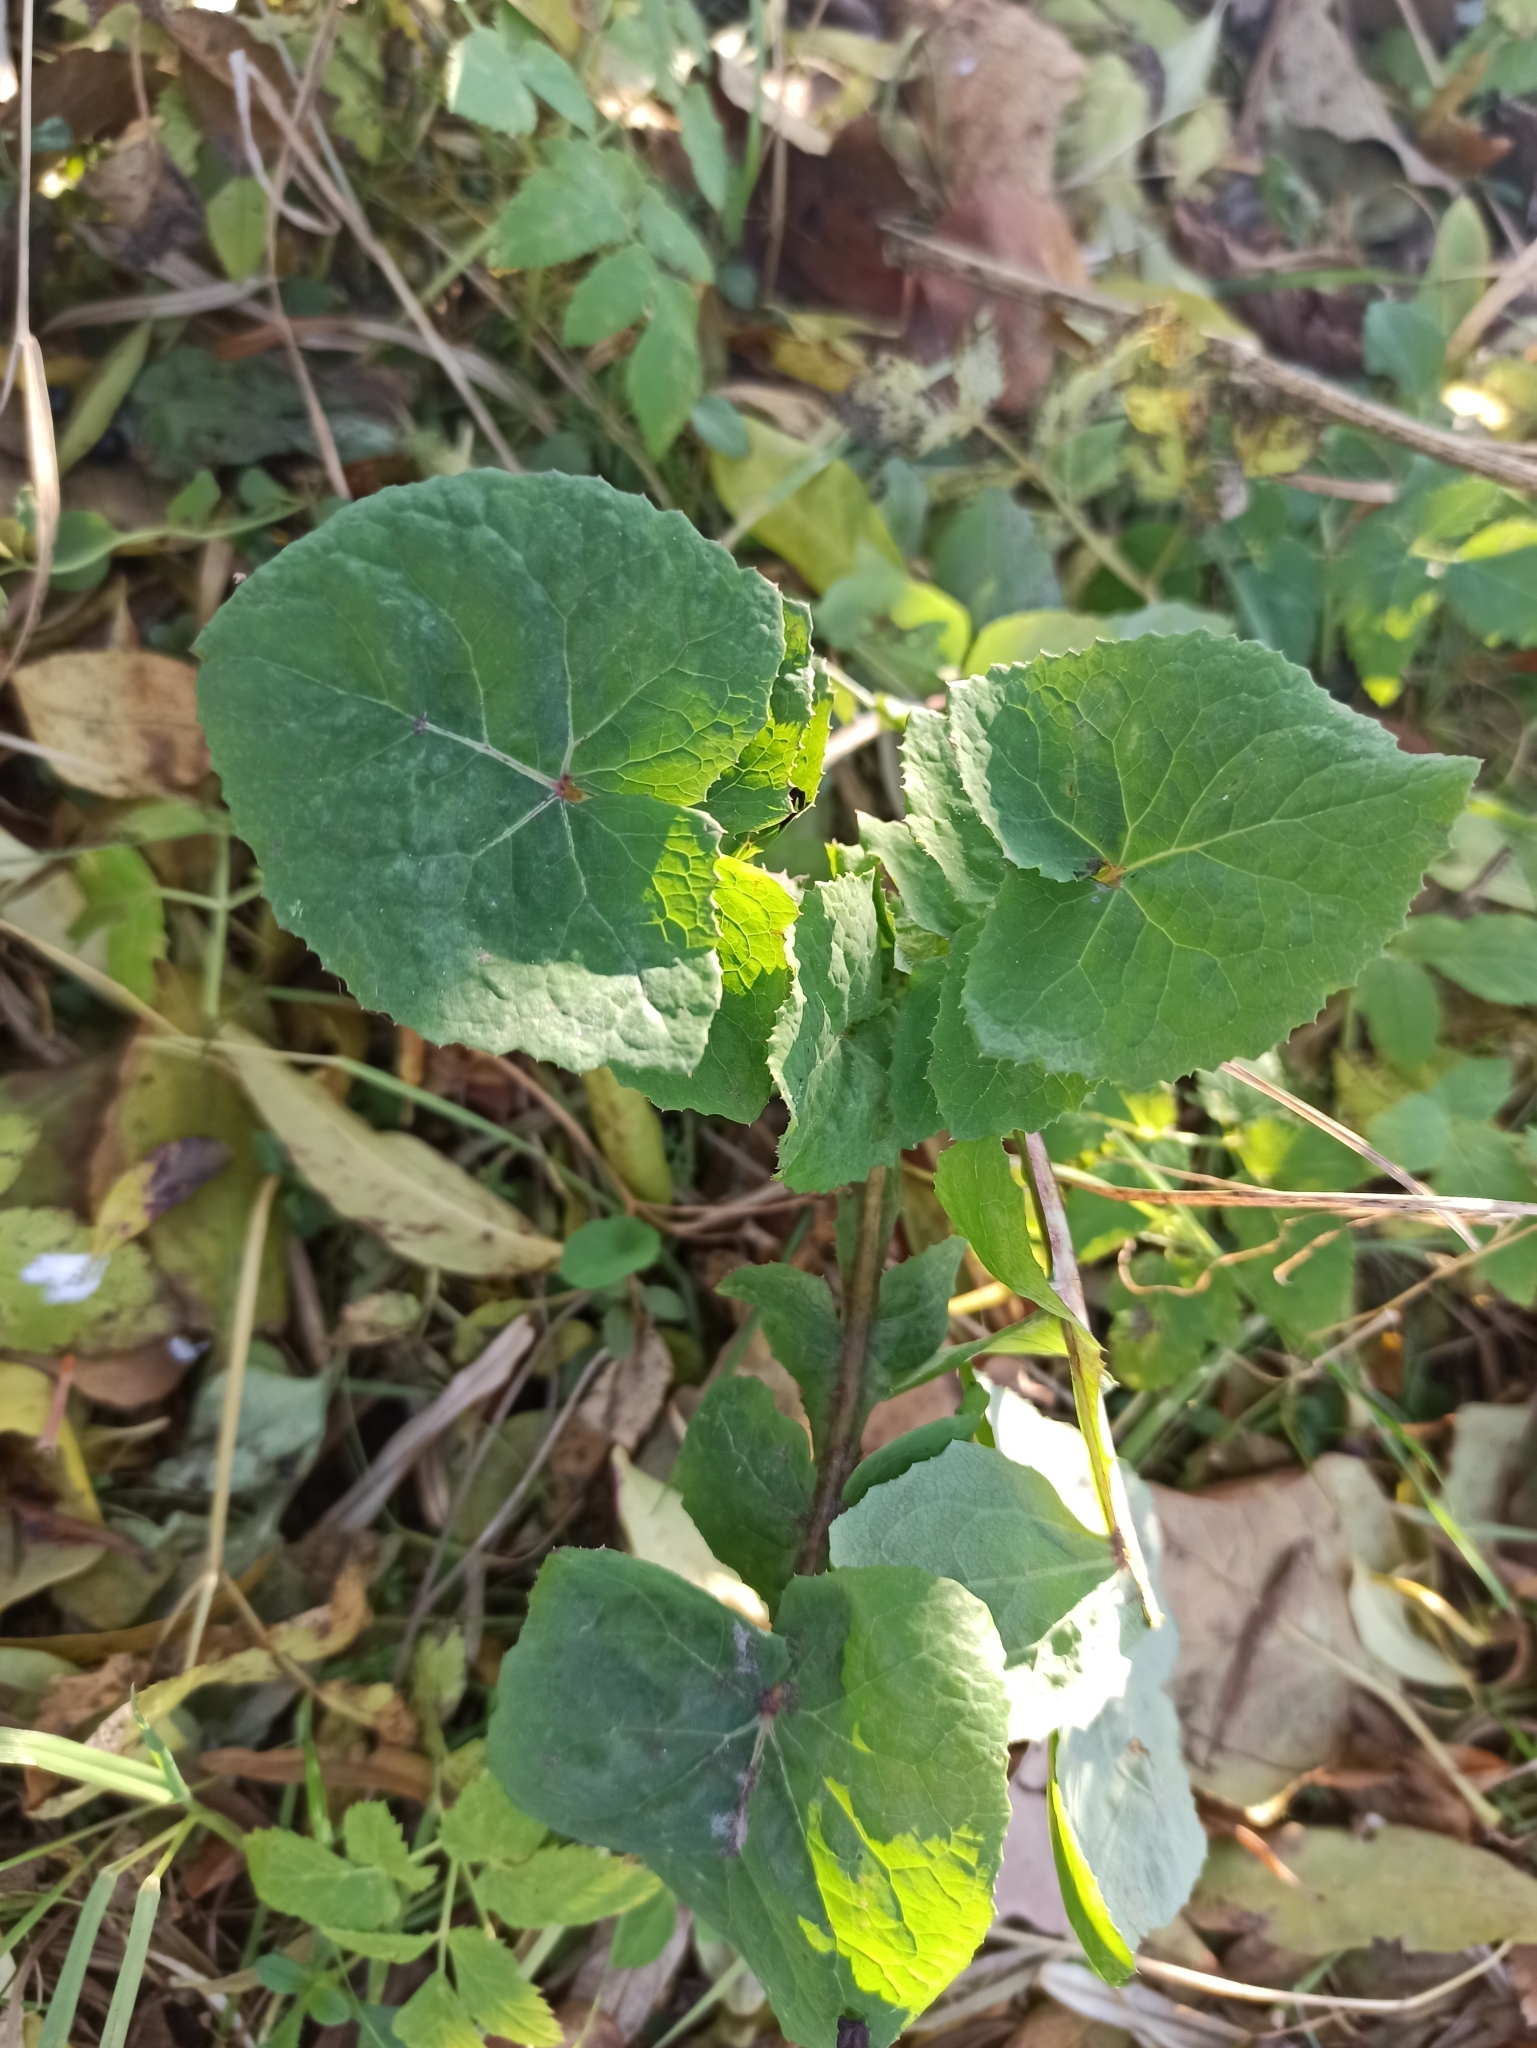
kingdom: Plantae
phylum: Tracheophyta
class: Magnoliopsida
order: Asterales
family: Asteraceae
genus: Sonchus
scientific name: Sonchus oleraceus
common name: Common sowthistle
